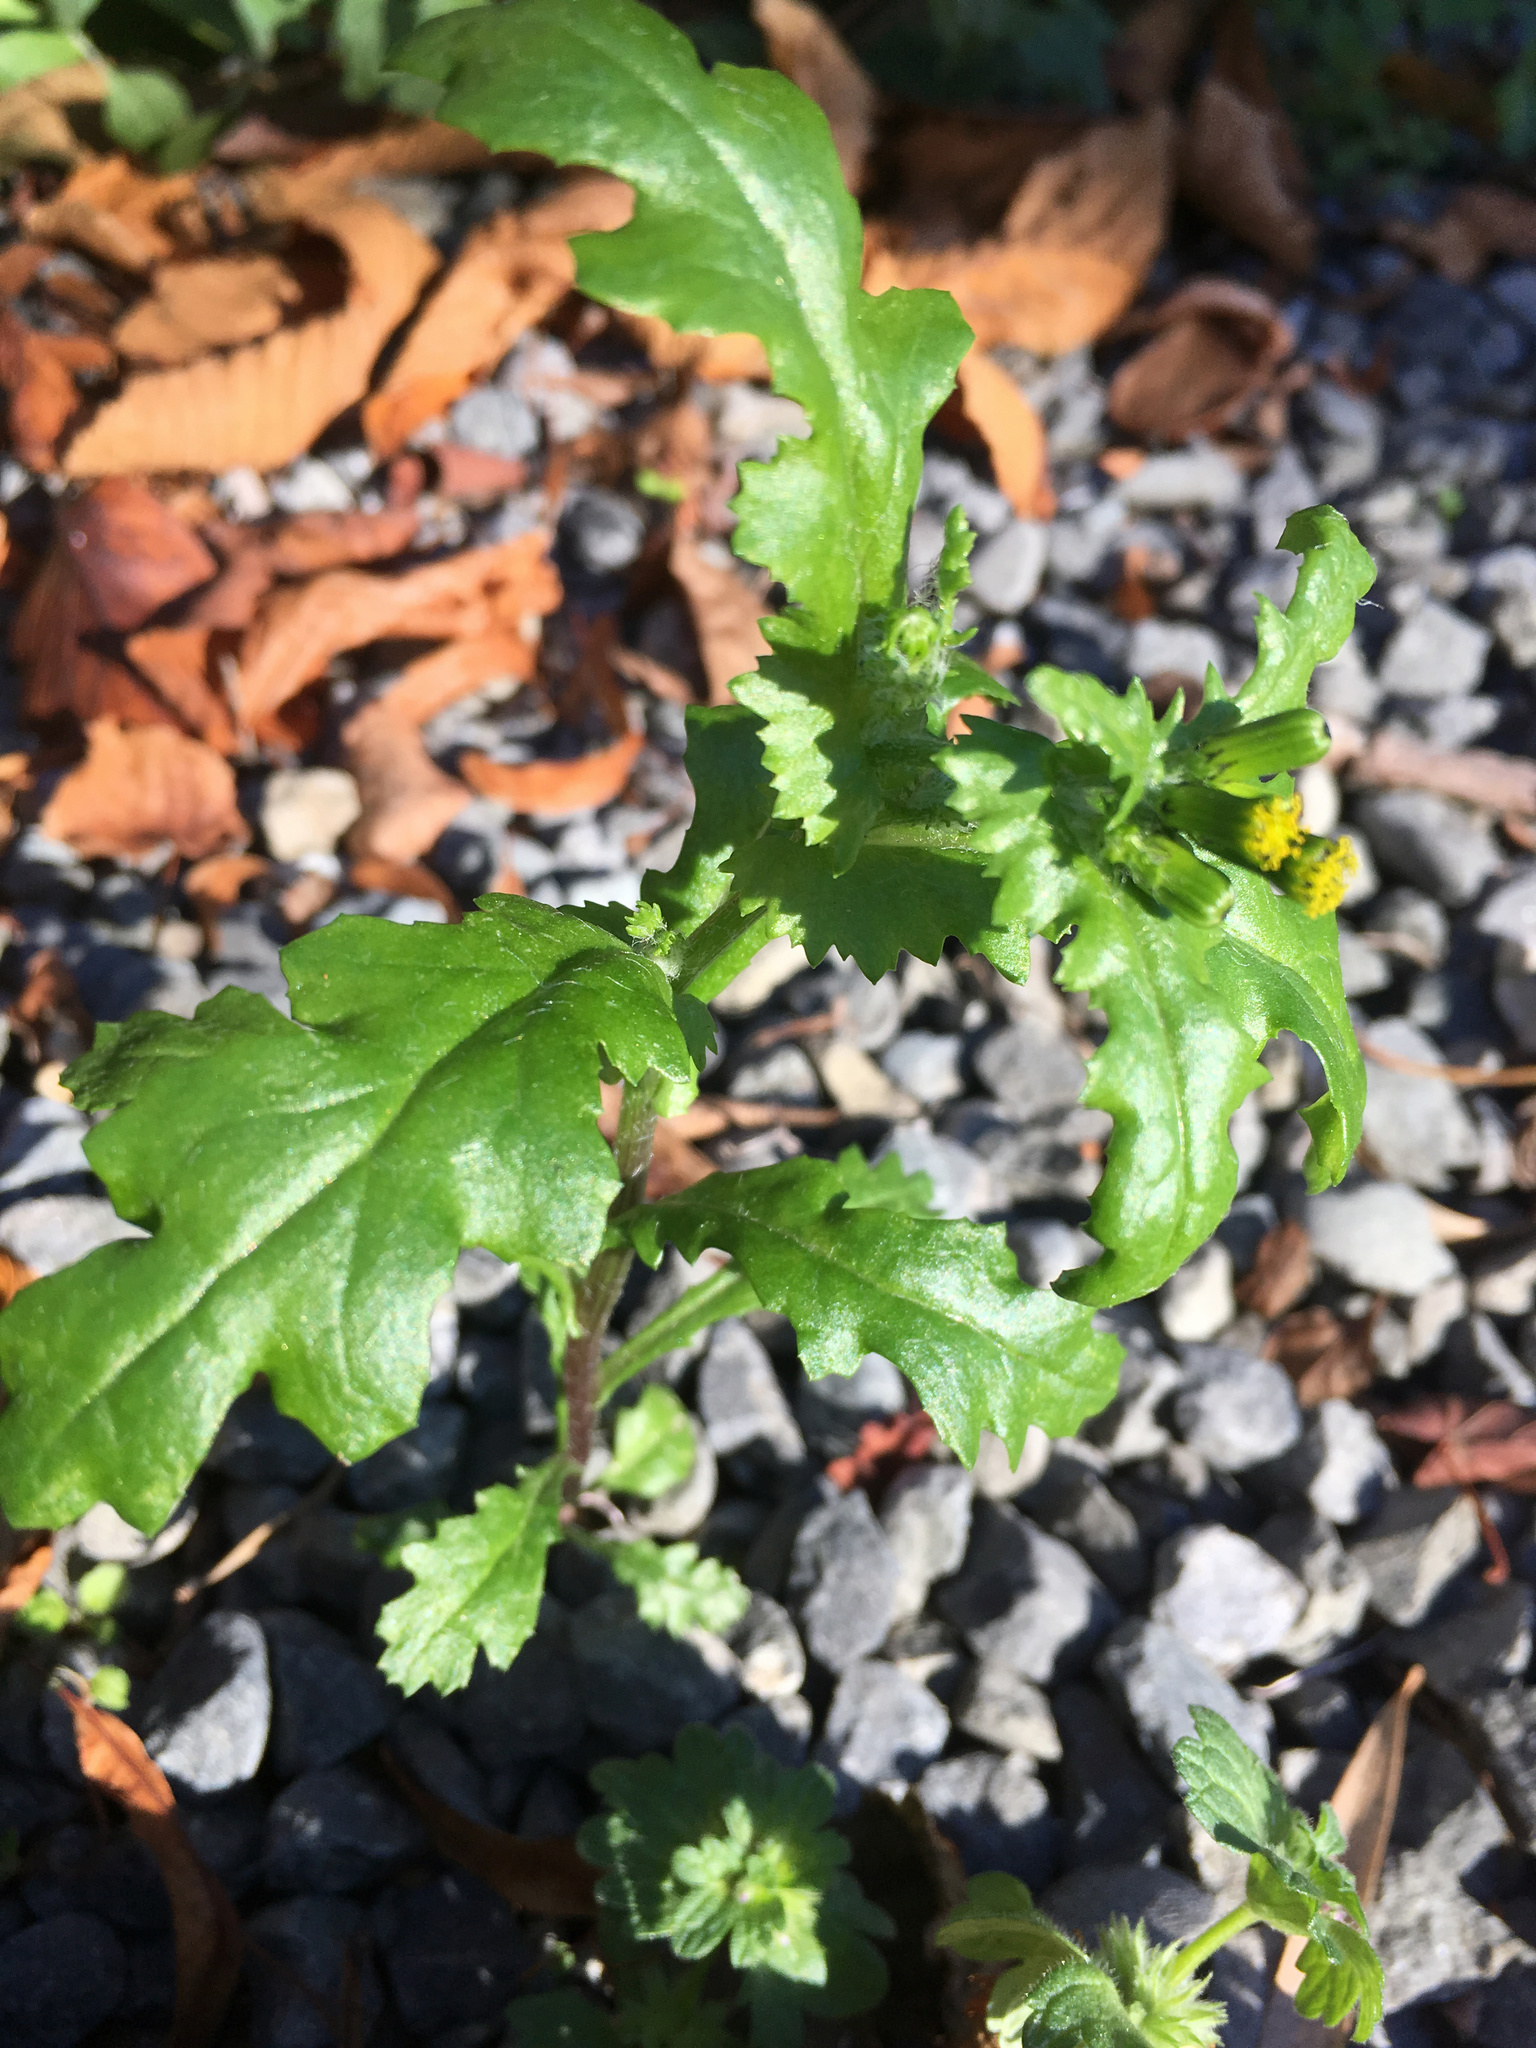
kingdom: Plantae
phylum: Tracheophyta
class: Magnoliopsida
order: Asterales
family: Asteraceae
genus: Senecio
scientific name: Senecio vulgaris
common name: Old-man-in-the-spring
